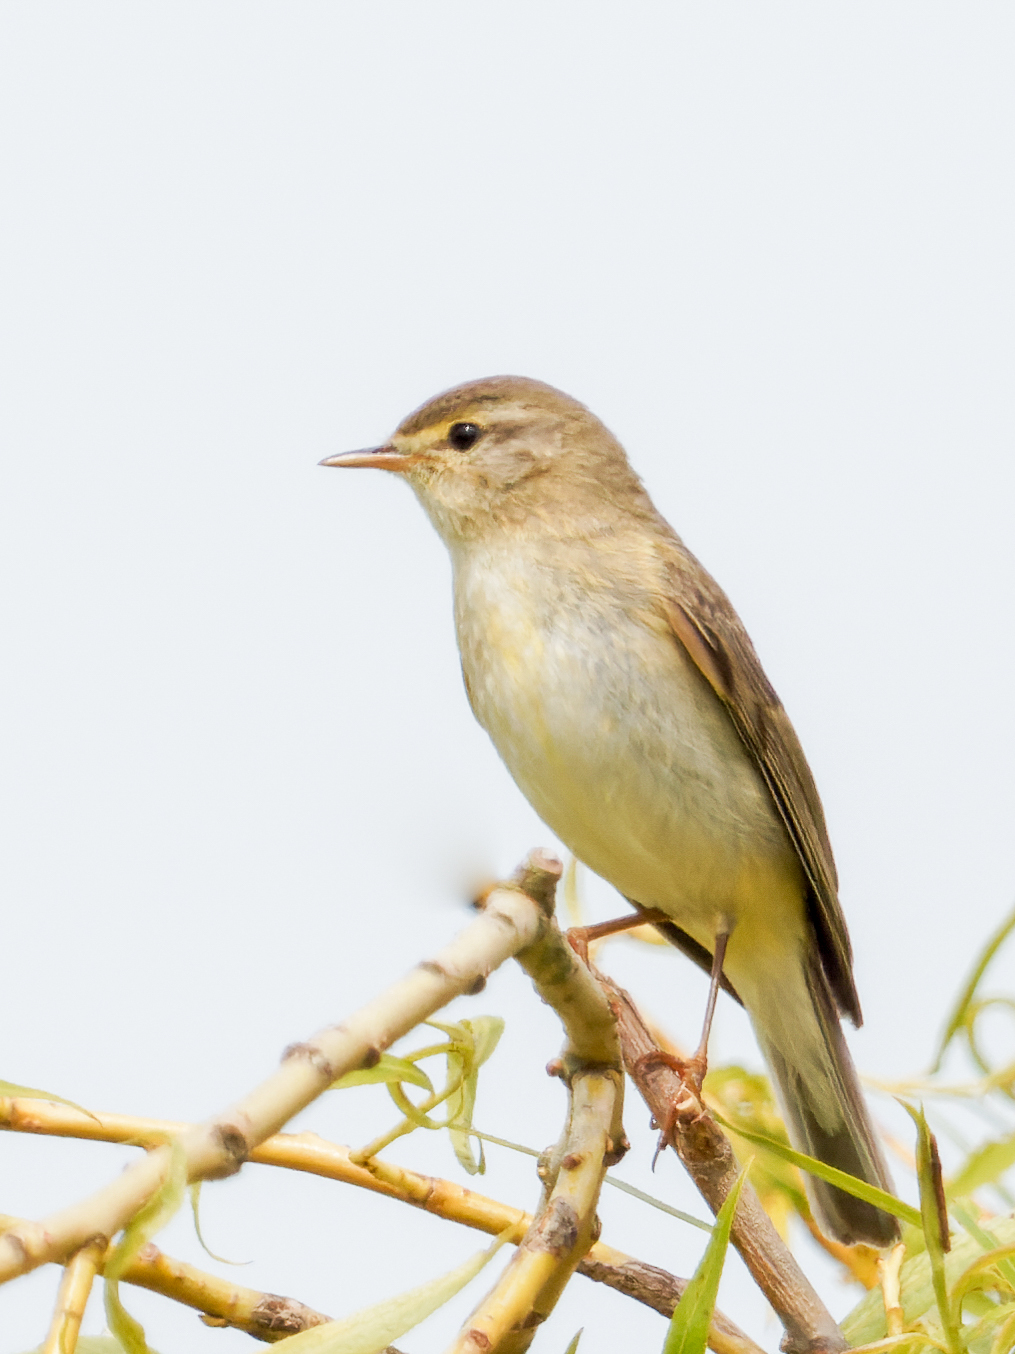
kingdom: Animalia
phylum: Chordata
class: Aves
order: Passeriformes
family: Phylloscopidae
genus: Phylloscopus
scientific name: Phylloscopus collybita
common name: Common chiffchaff
